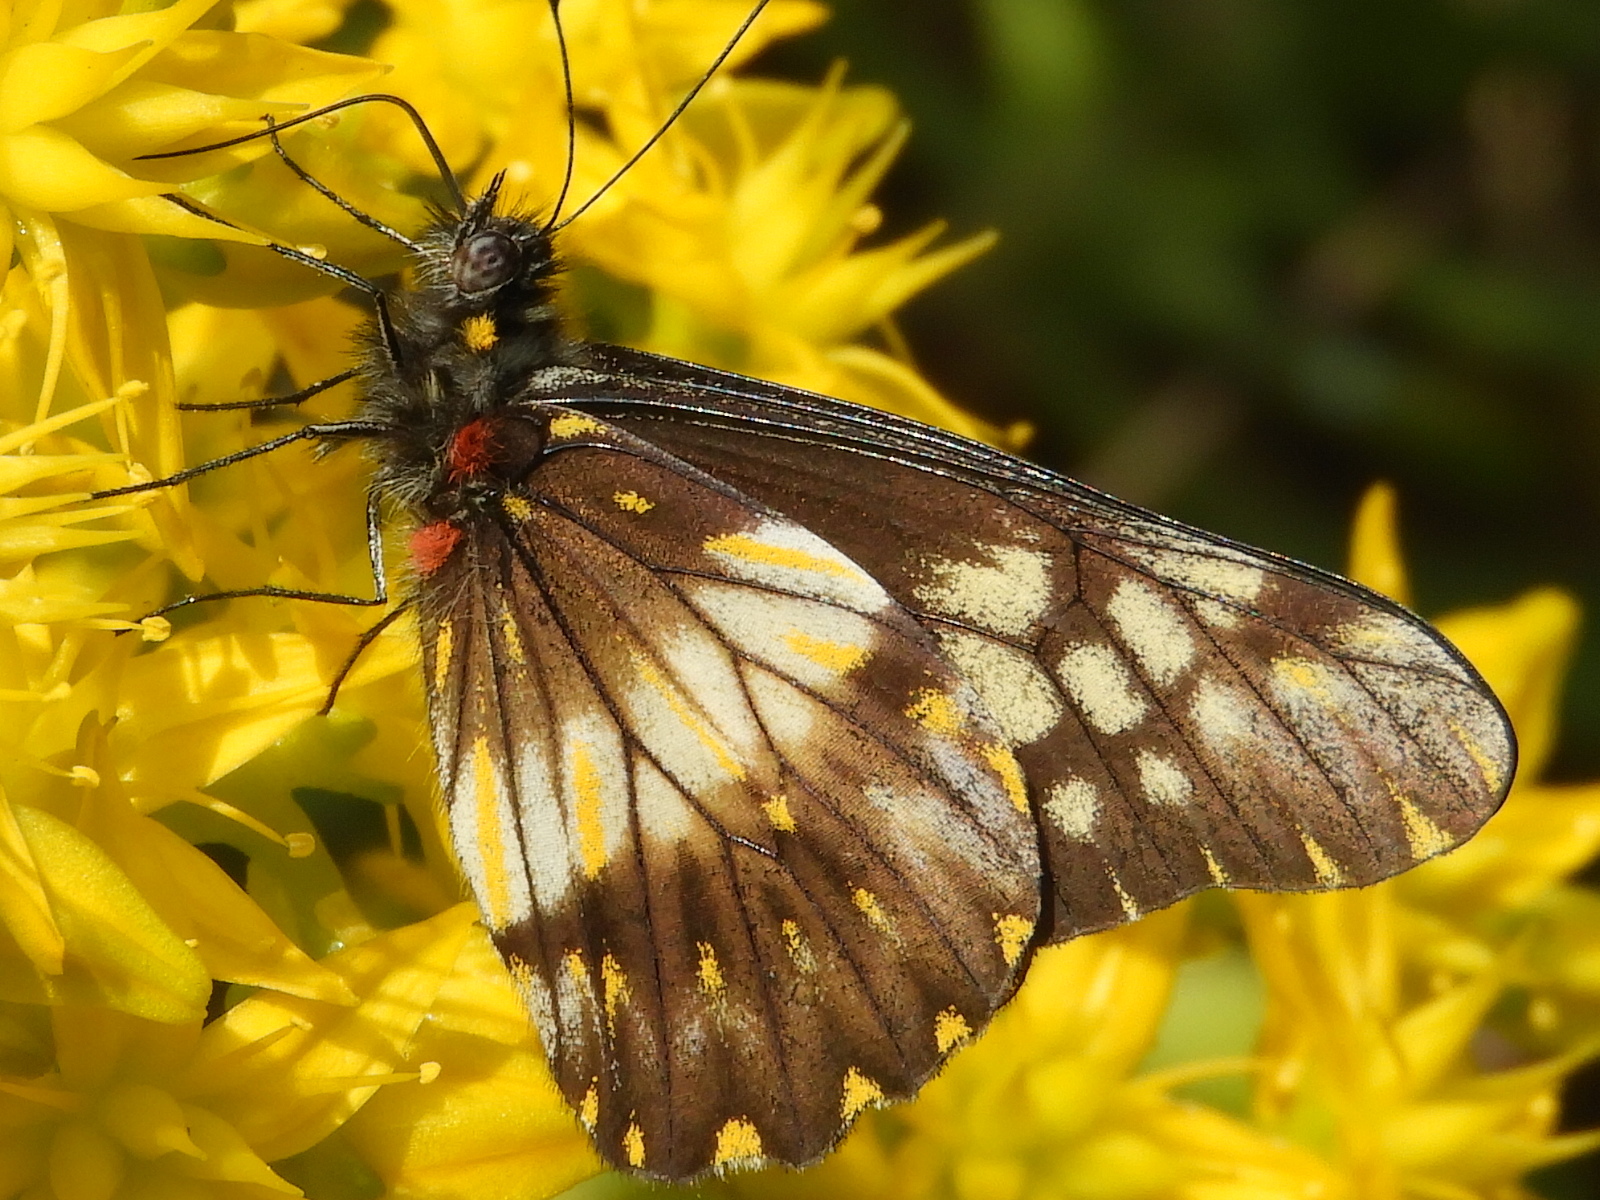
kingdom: Animalia
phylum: Arthropoda
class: Insecta
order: Lepidoptera
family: Pieridae
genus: Archonias
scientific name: Archonias nimbice
